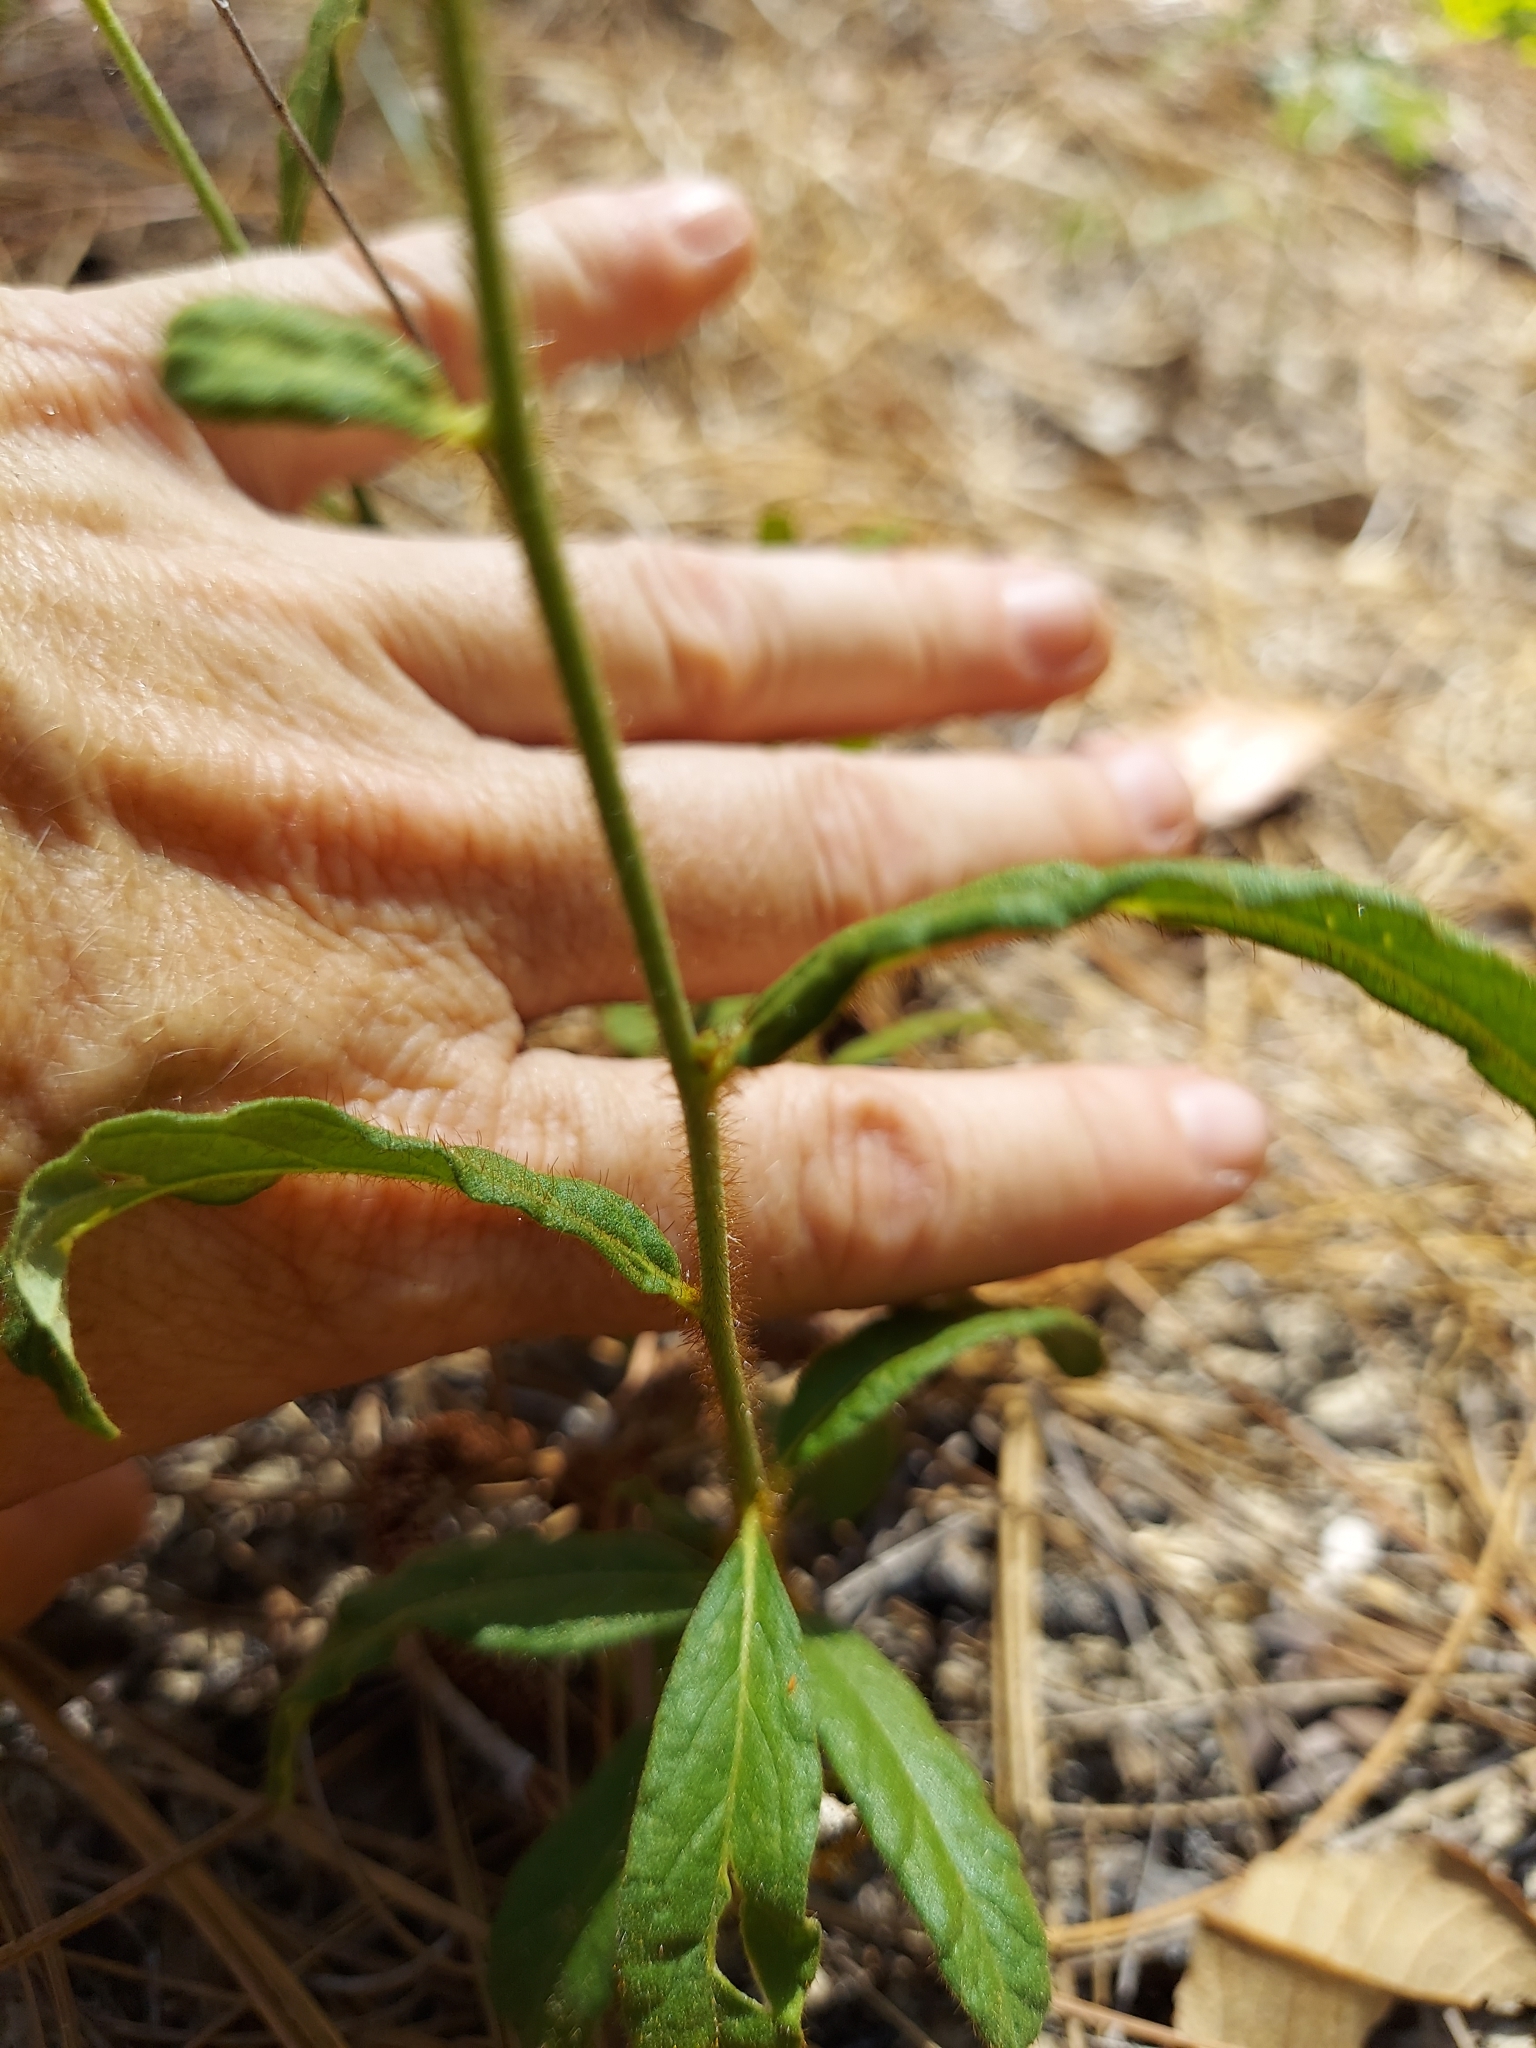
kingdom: Plantae
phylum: Tracheophyta
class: Magnoliopsida
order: Malpighiales
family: Turneraceae
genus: Piriqueta
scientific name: Piriqueta cistoides
